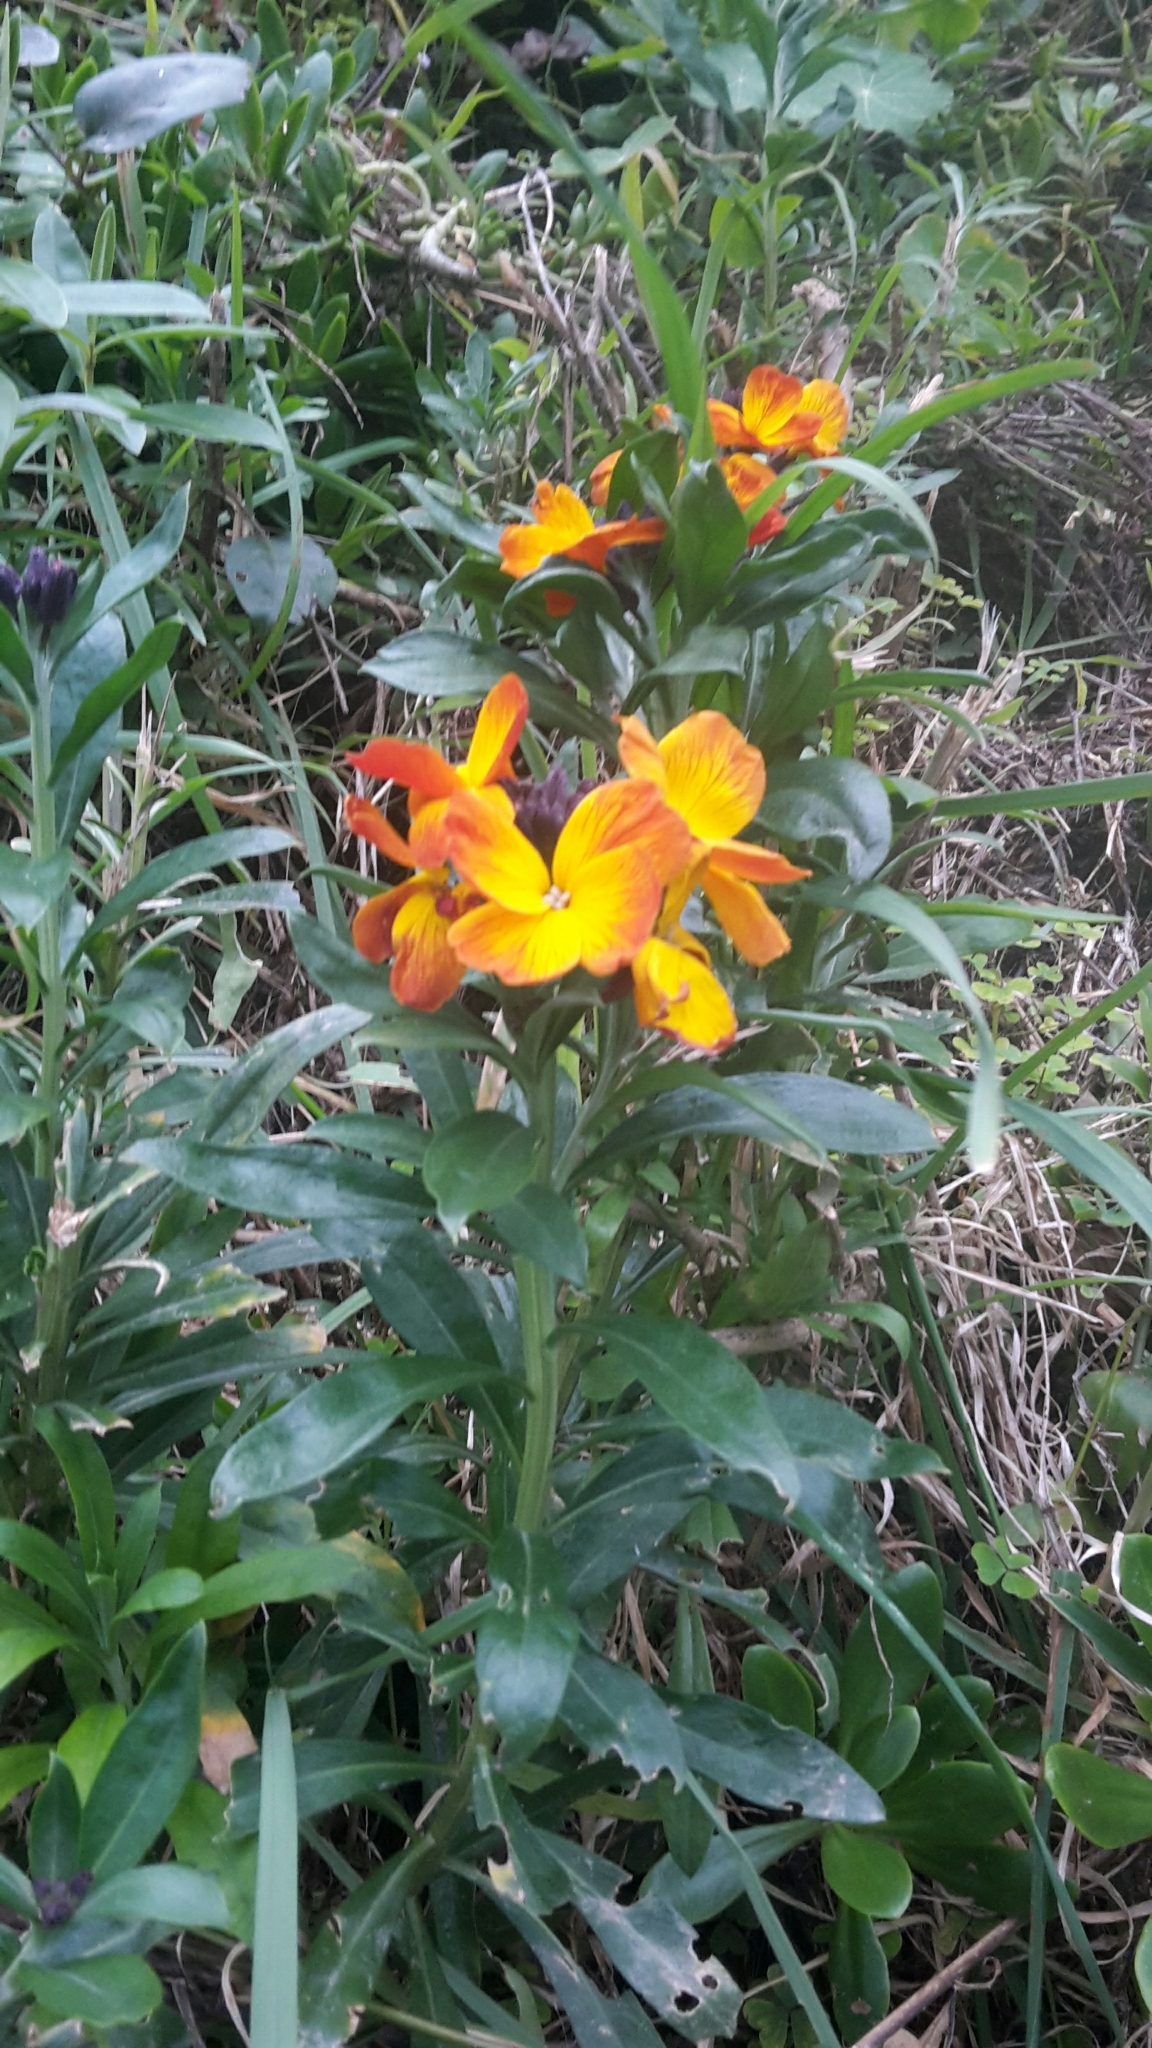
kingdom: Plantae
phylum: Tracheophyta
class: Magnoliopsida
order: Brassicales
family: Brassicaceae
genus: Erysimum
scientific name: Erysimum cheiri
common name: Wallflower
